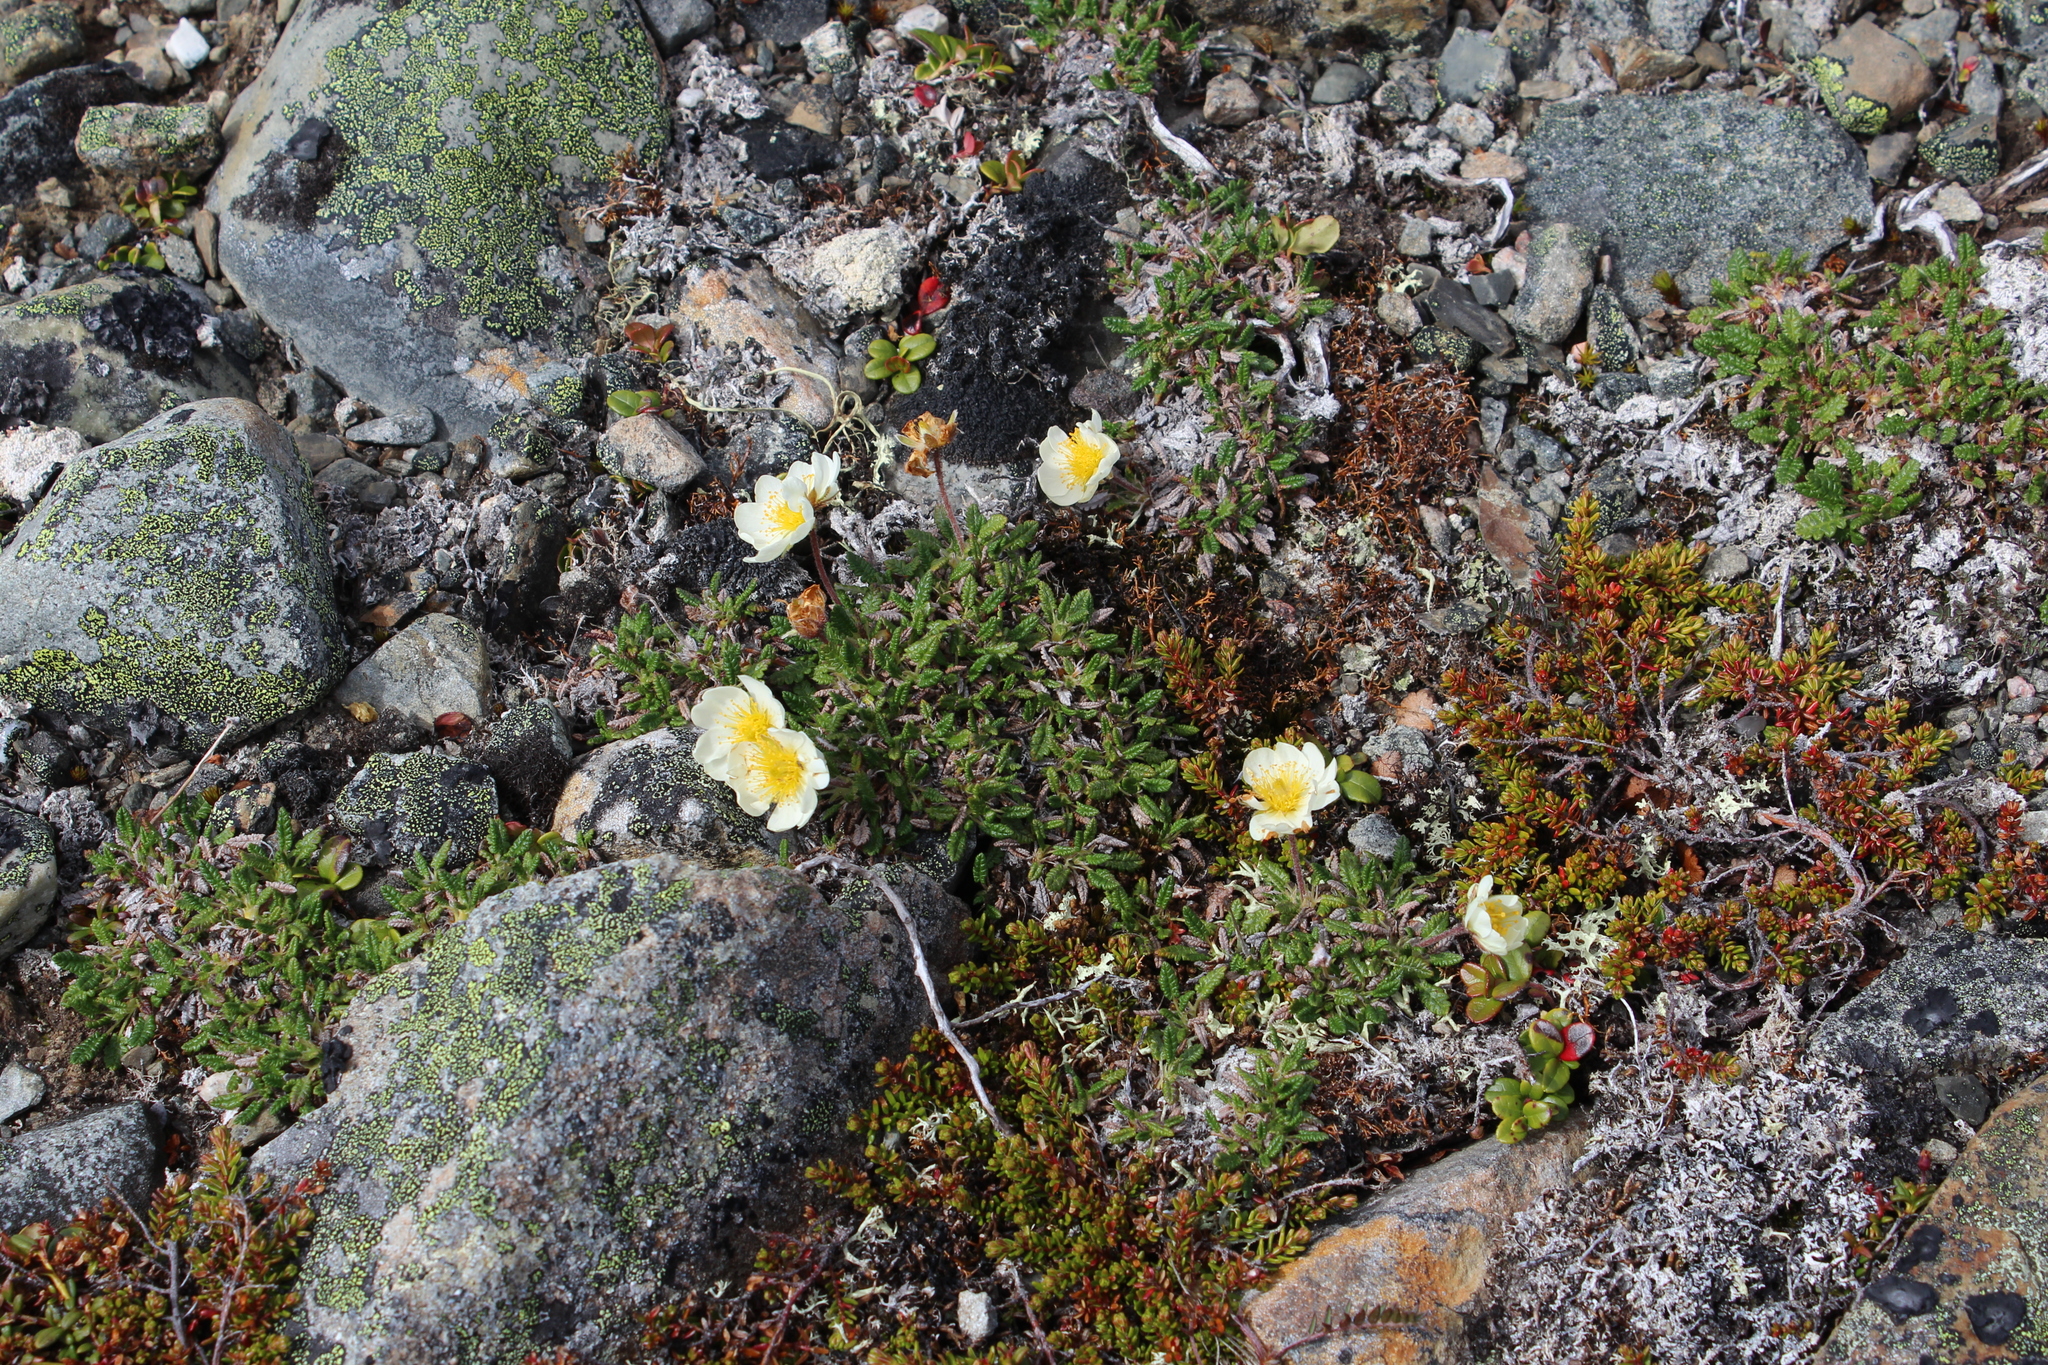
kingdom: Plantae
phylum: Tracheophyta
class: Magnoliopsida
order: Rosales
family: Rosaceae
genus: Dryas
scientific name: Dryas octopetala
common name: Eight-petal mountain-avens
